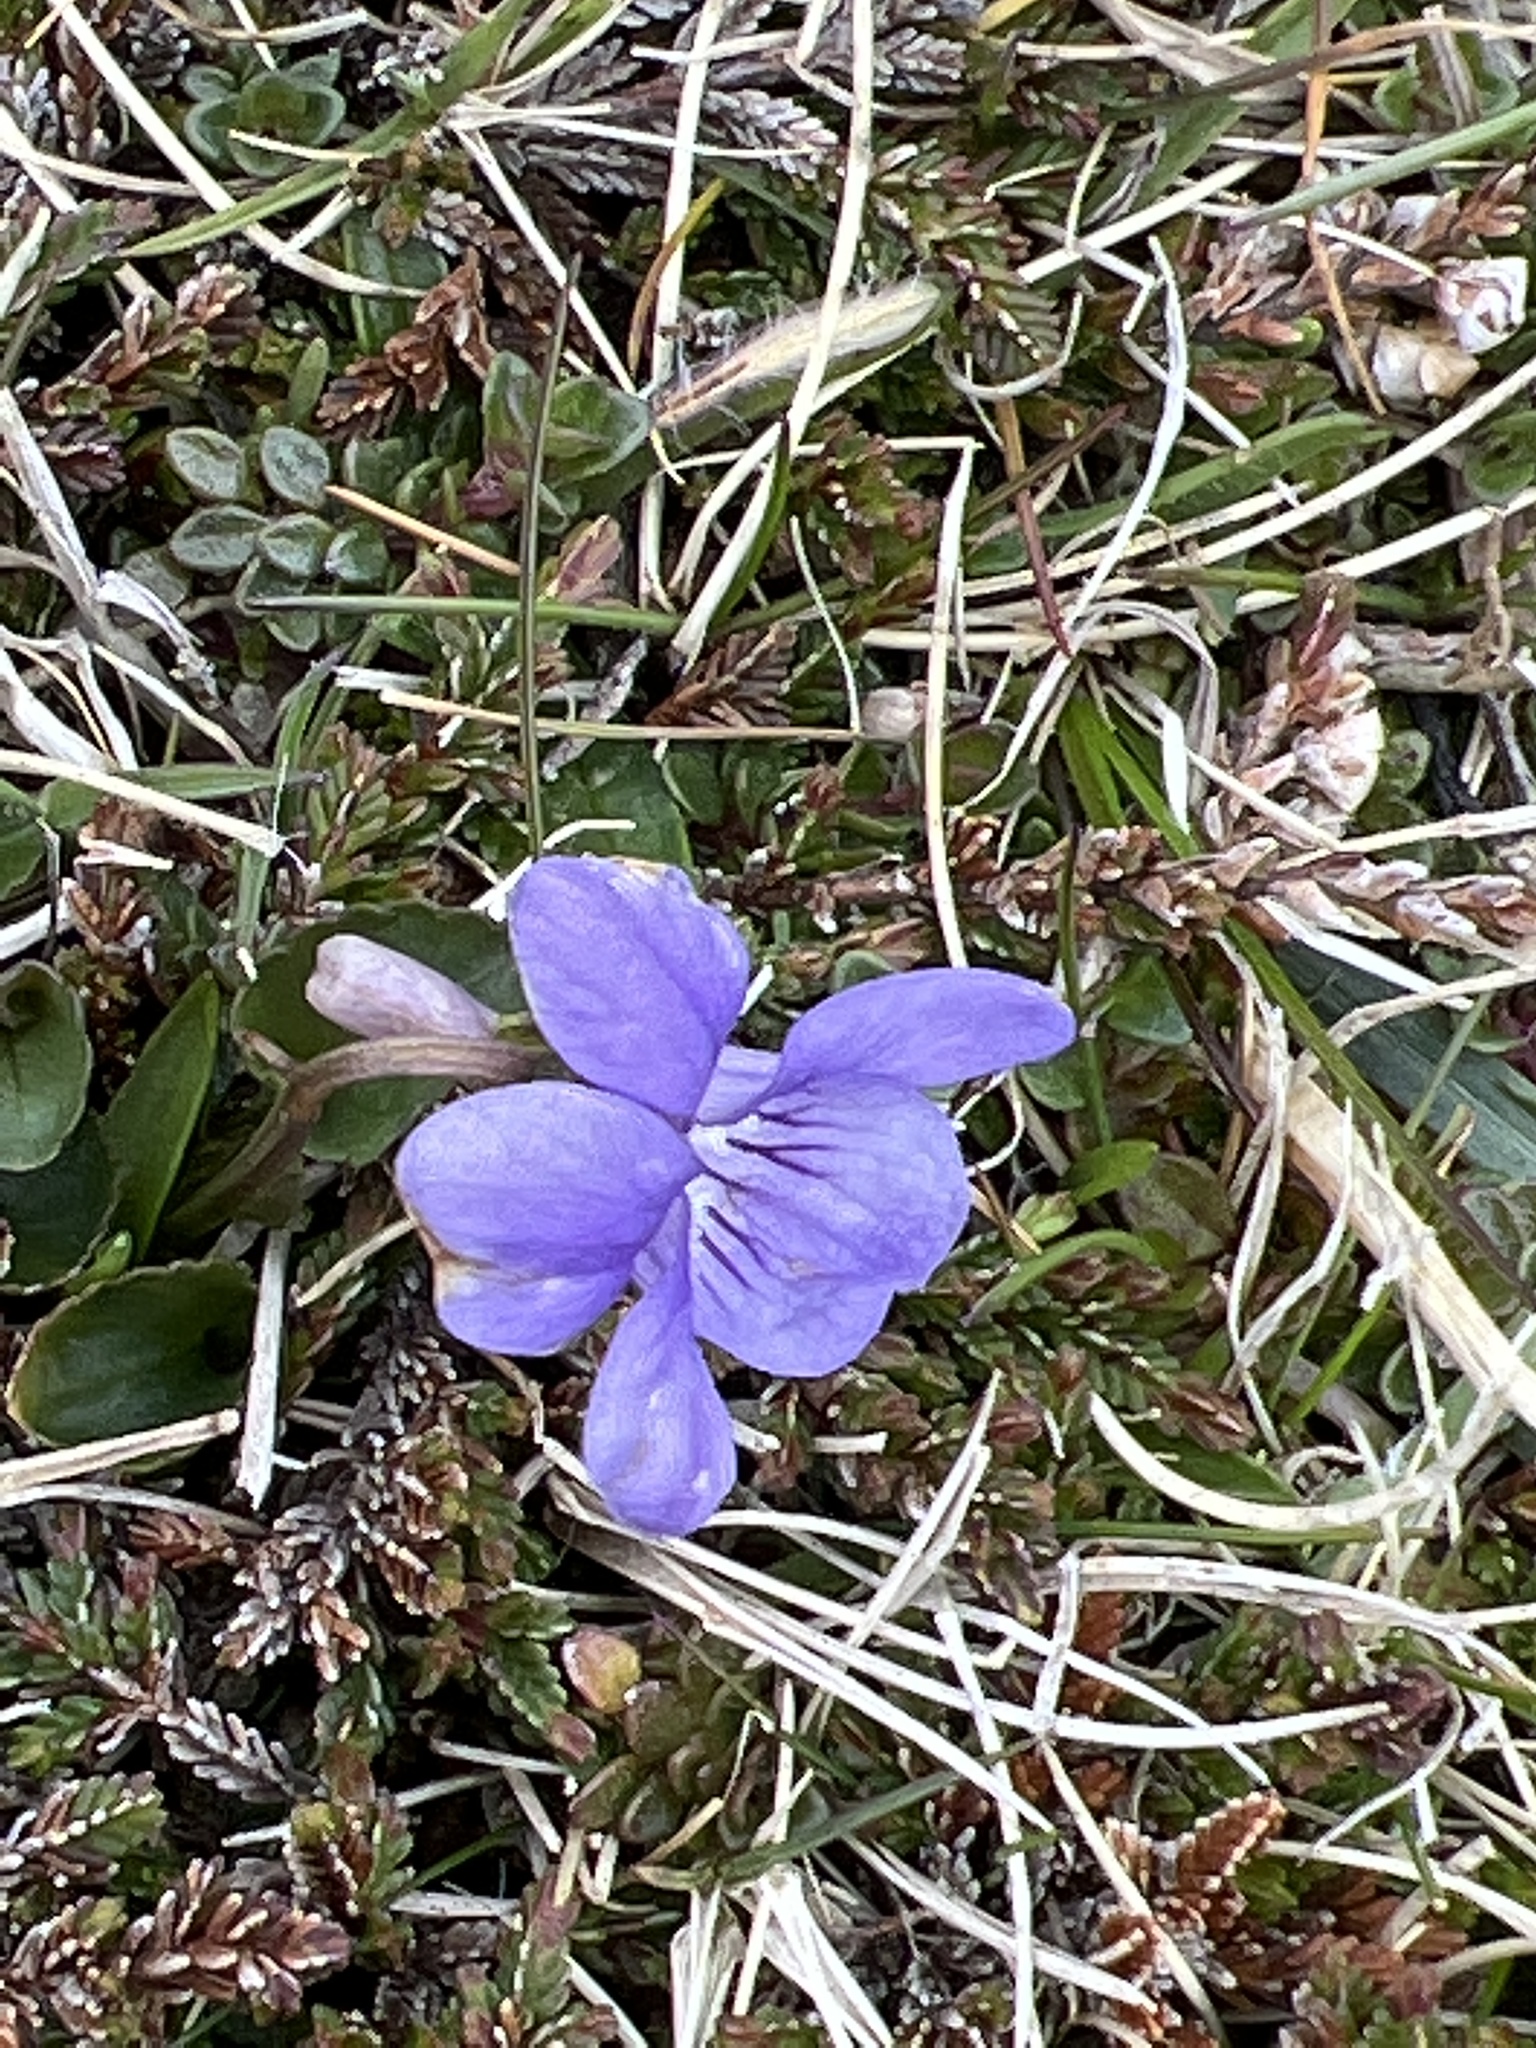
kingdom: Plantae
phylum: Tracheophyta
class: Magnoliopsida
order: Malpighiales
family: Violaceae
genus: Viola
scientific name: Viola riviniana
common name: Common dog-violet
